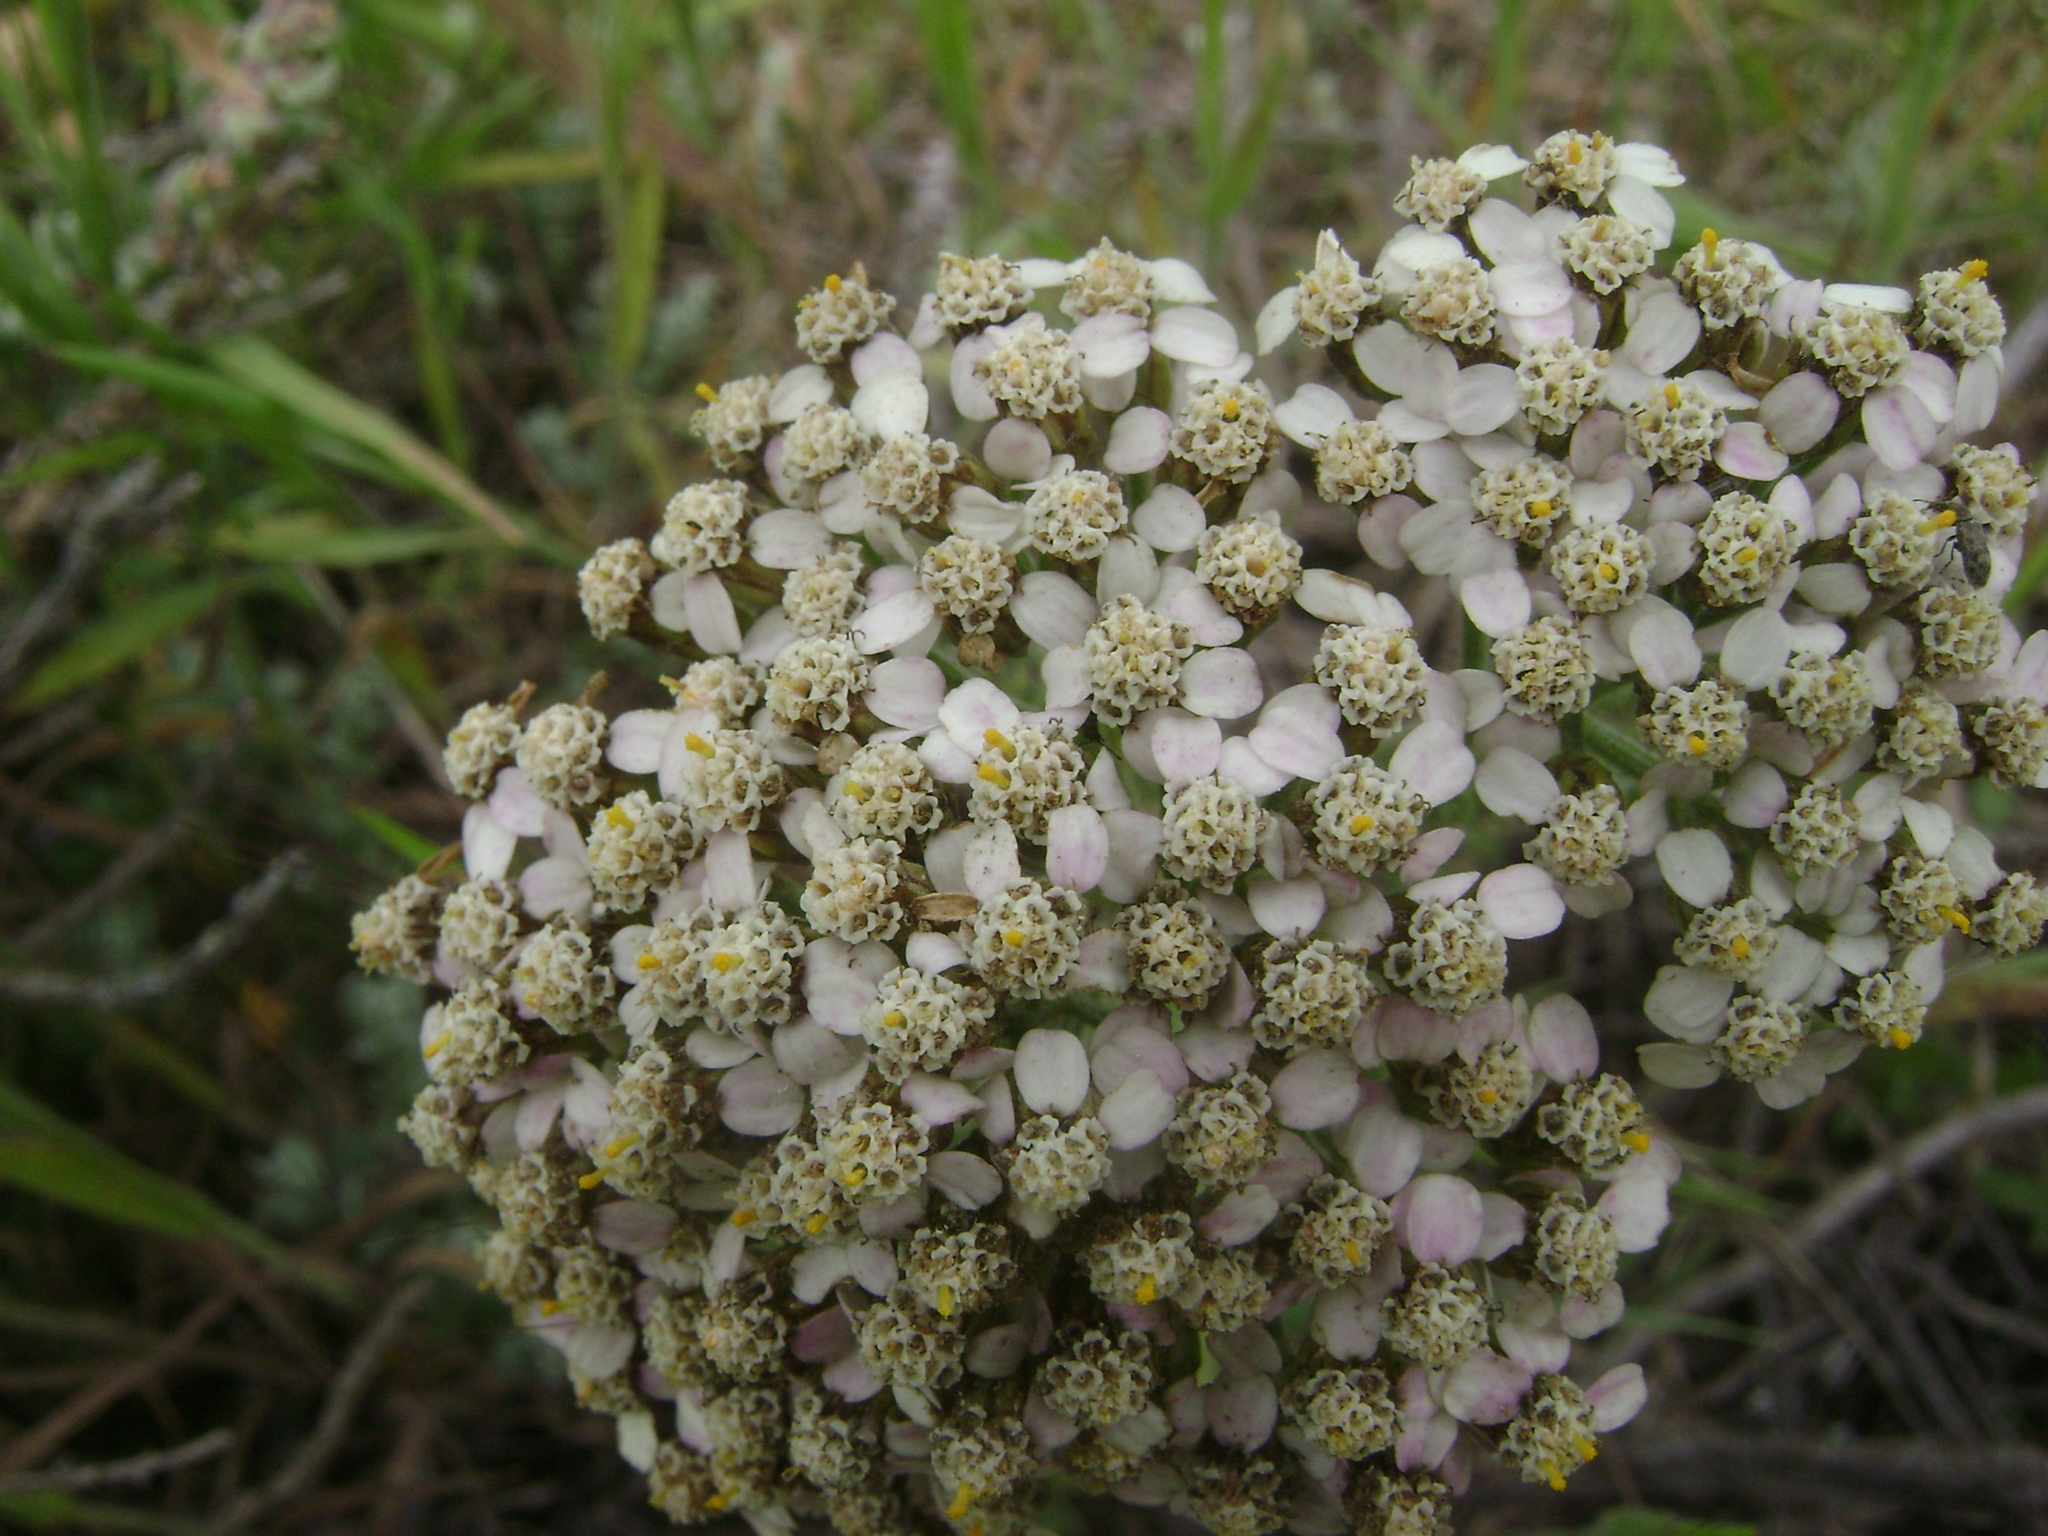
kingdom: Plantae
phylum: Tracheophyta
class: Magnoliopsida
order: Asterales
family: Asteraceae
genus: Achillea
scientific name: Achillea millefolium
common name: Yarrow
